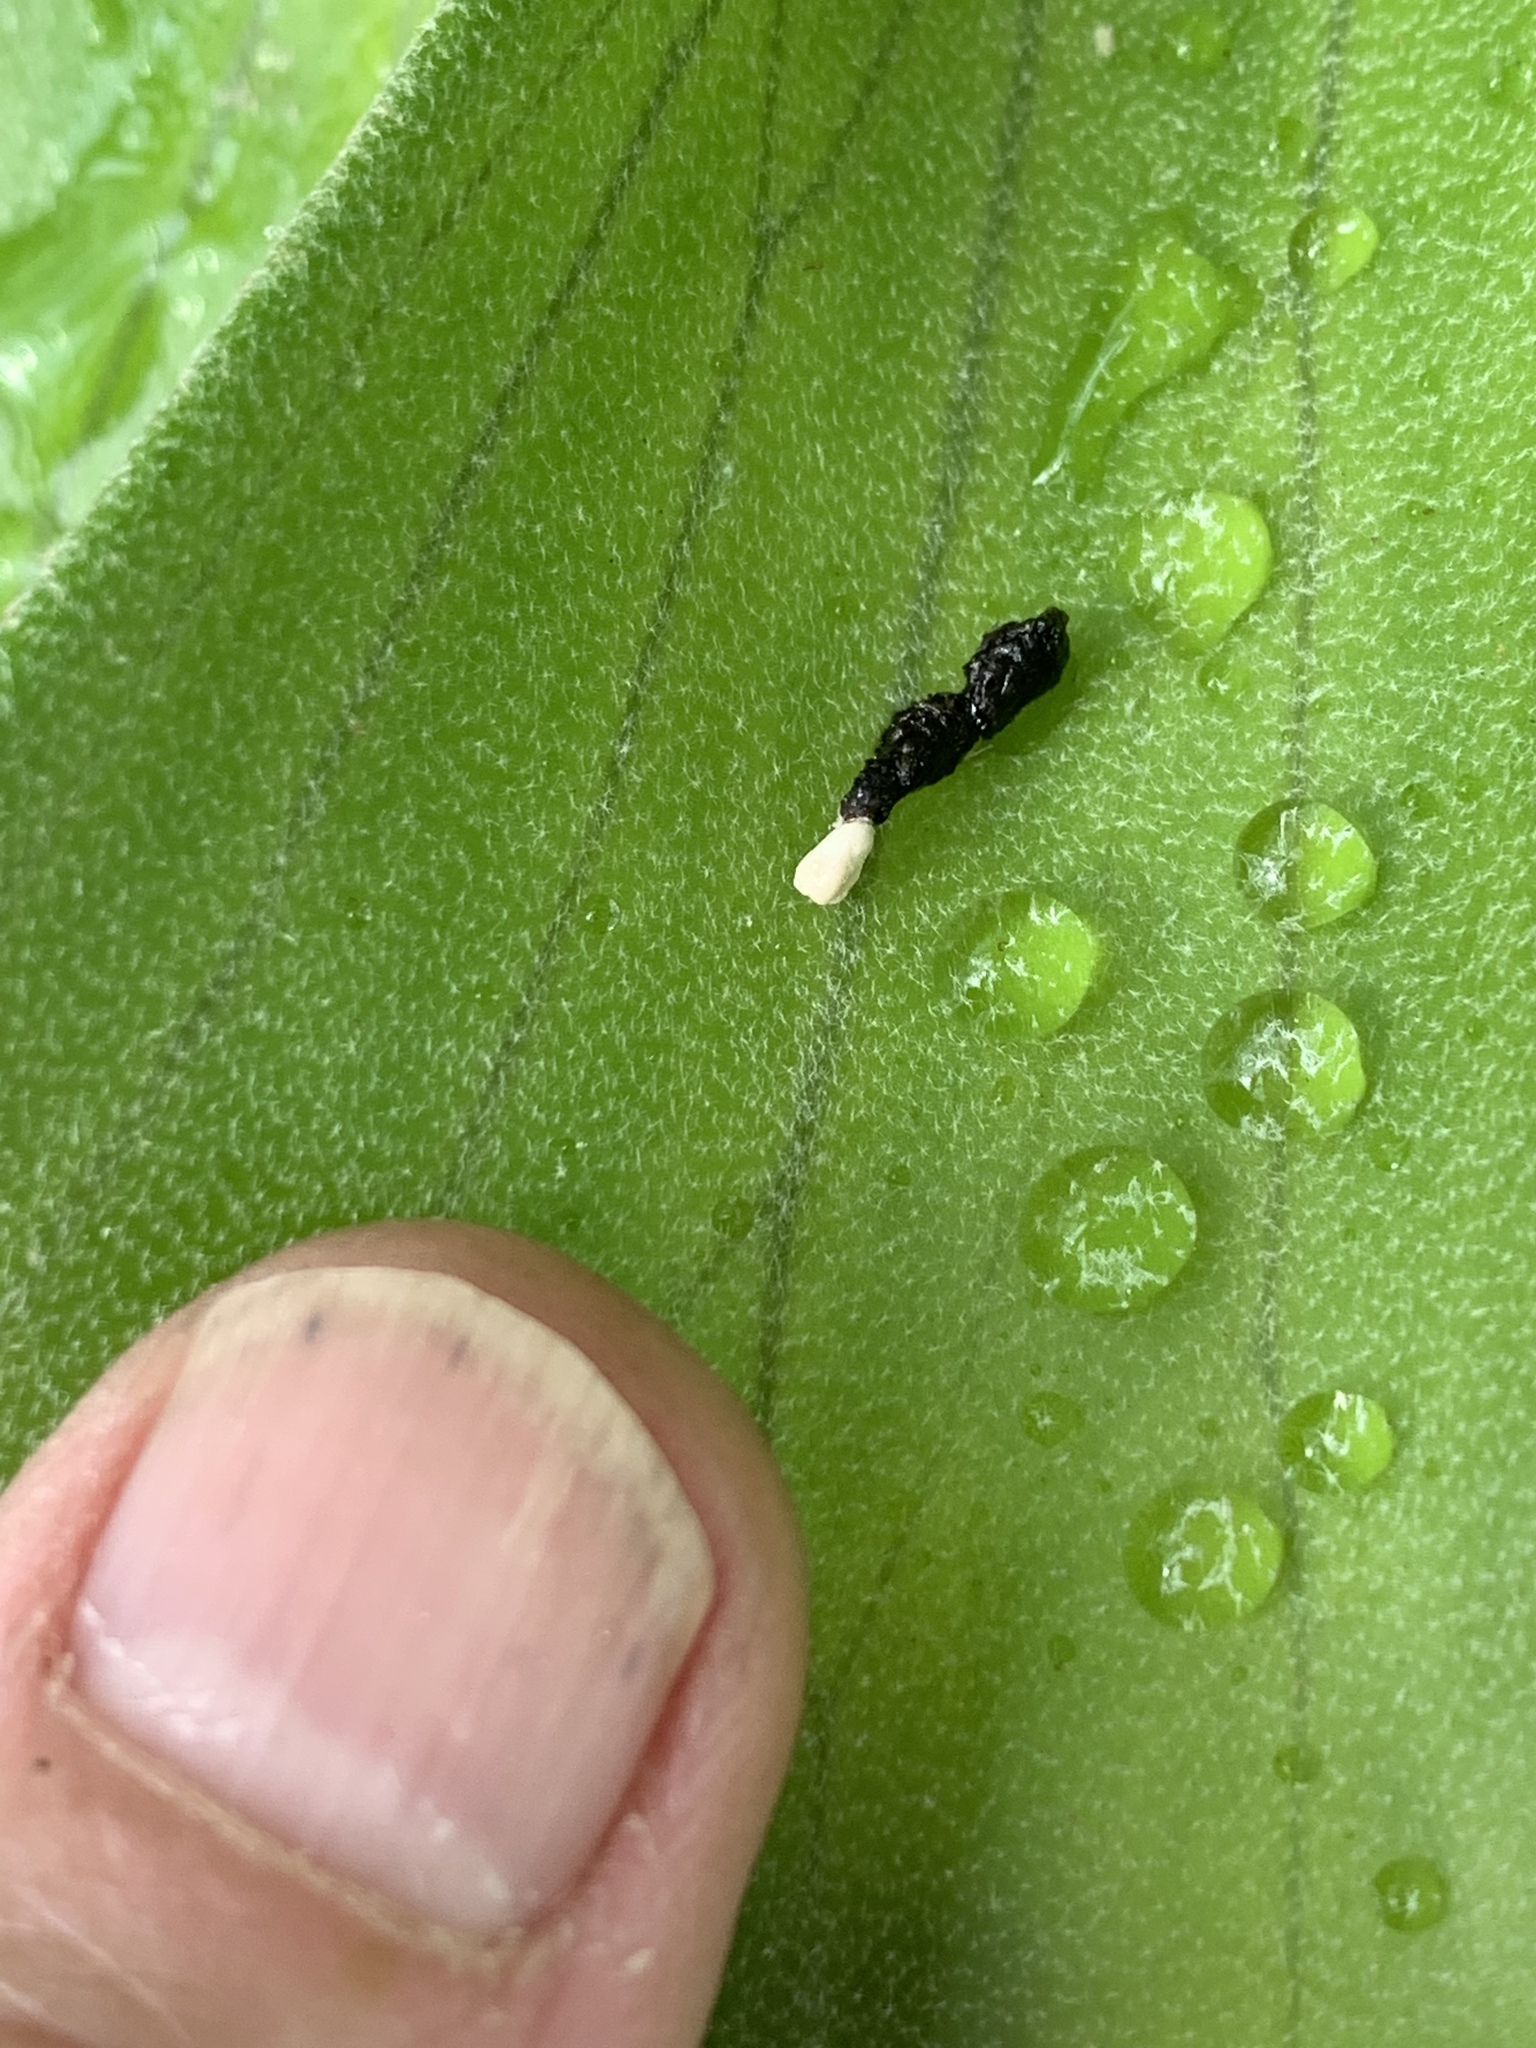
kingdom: Animalia
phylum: Chordata
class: Squamata
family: Dactyloidae
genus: Anolis
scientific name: Anolis carolinensis
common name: Green anole
